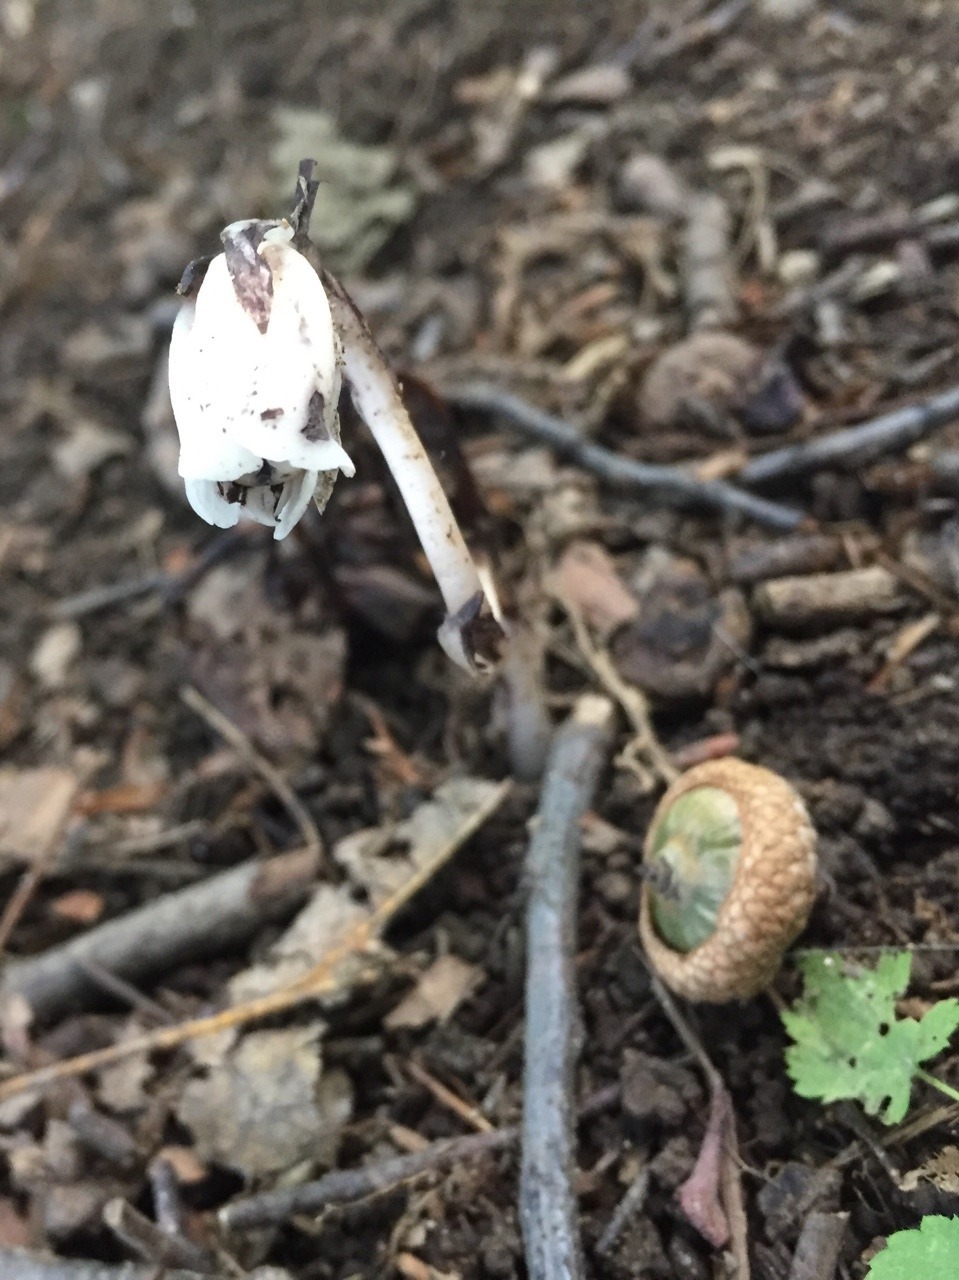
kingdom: Plantae
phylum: Tracheophyta
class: Magnoliopsida
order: Ericales
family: Ericaceae
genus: Monotropa
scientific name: Monotropa uniflora
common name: Convulsion root
